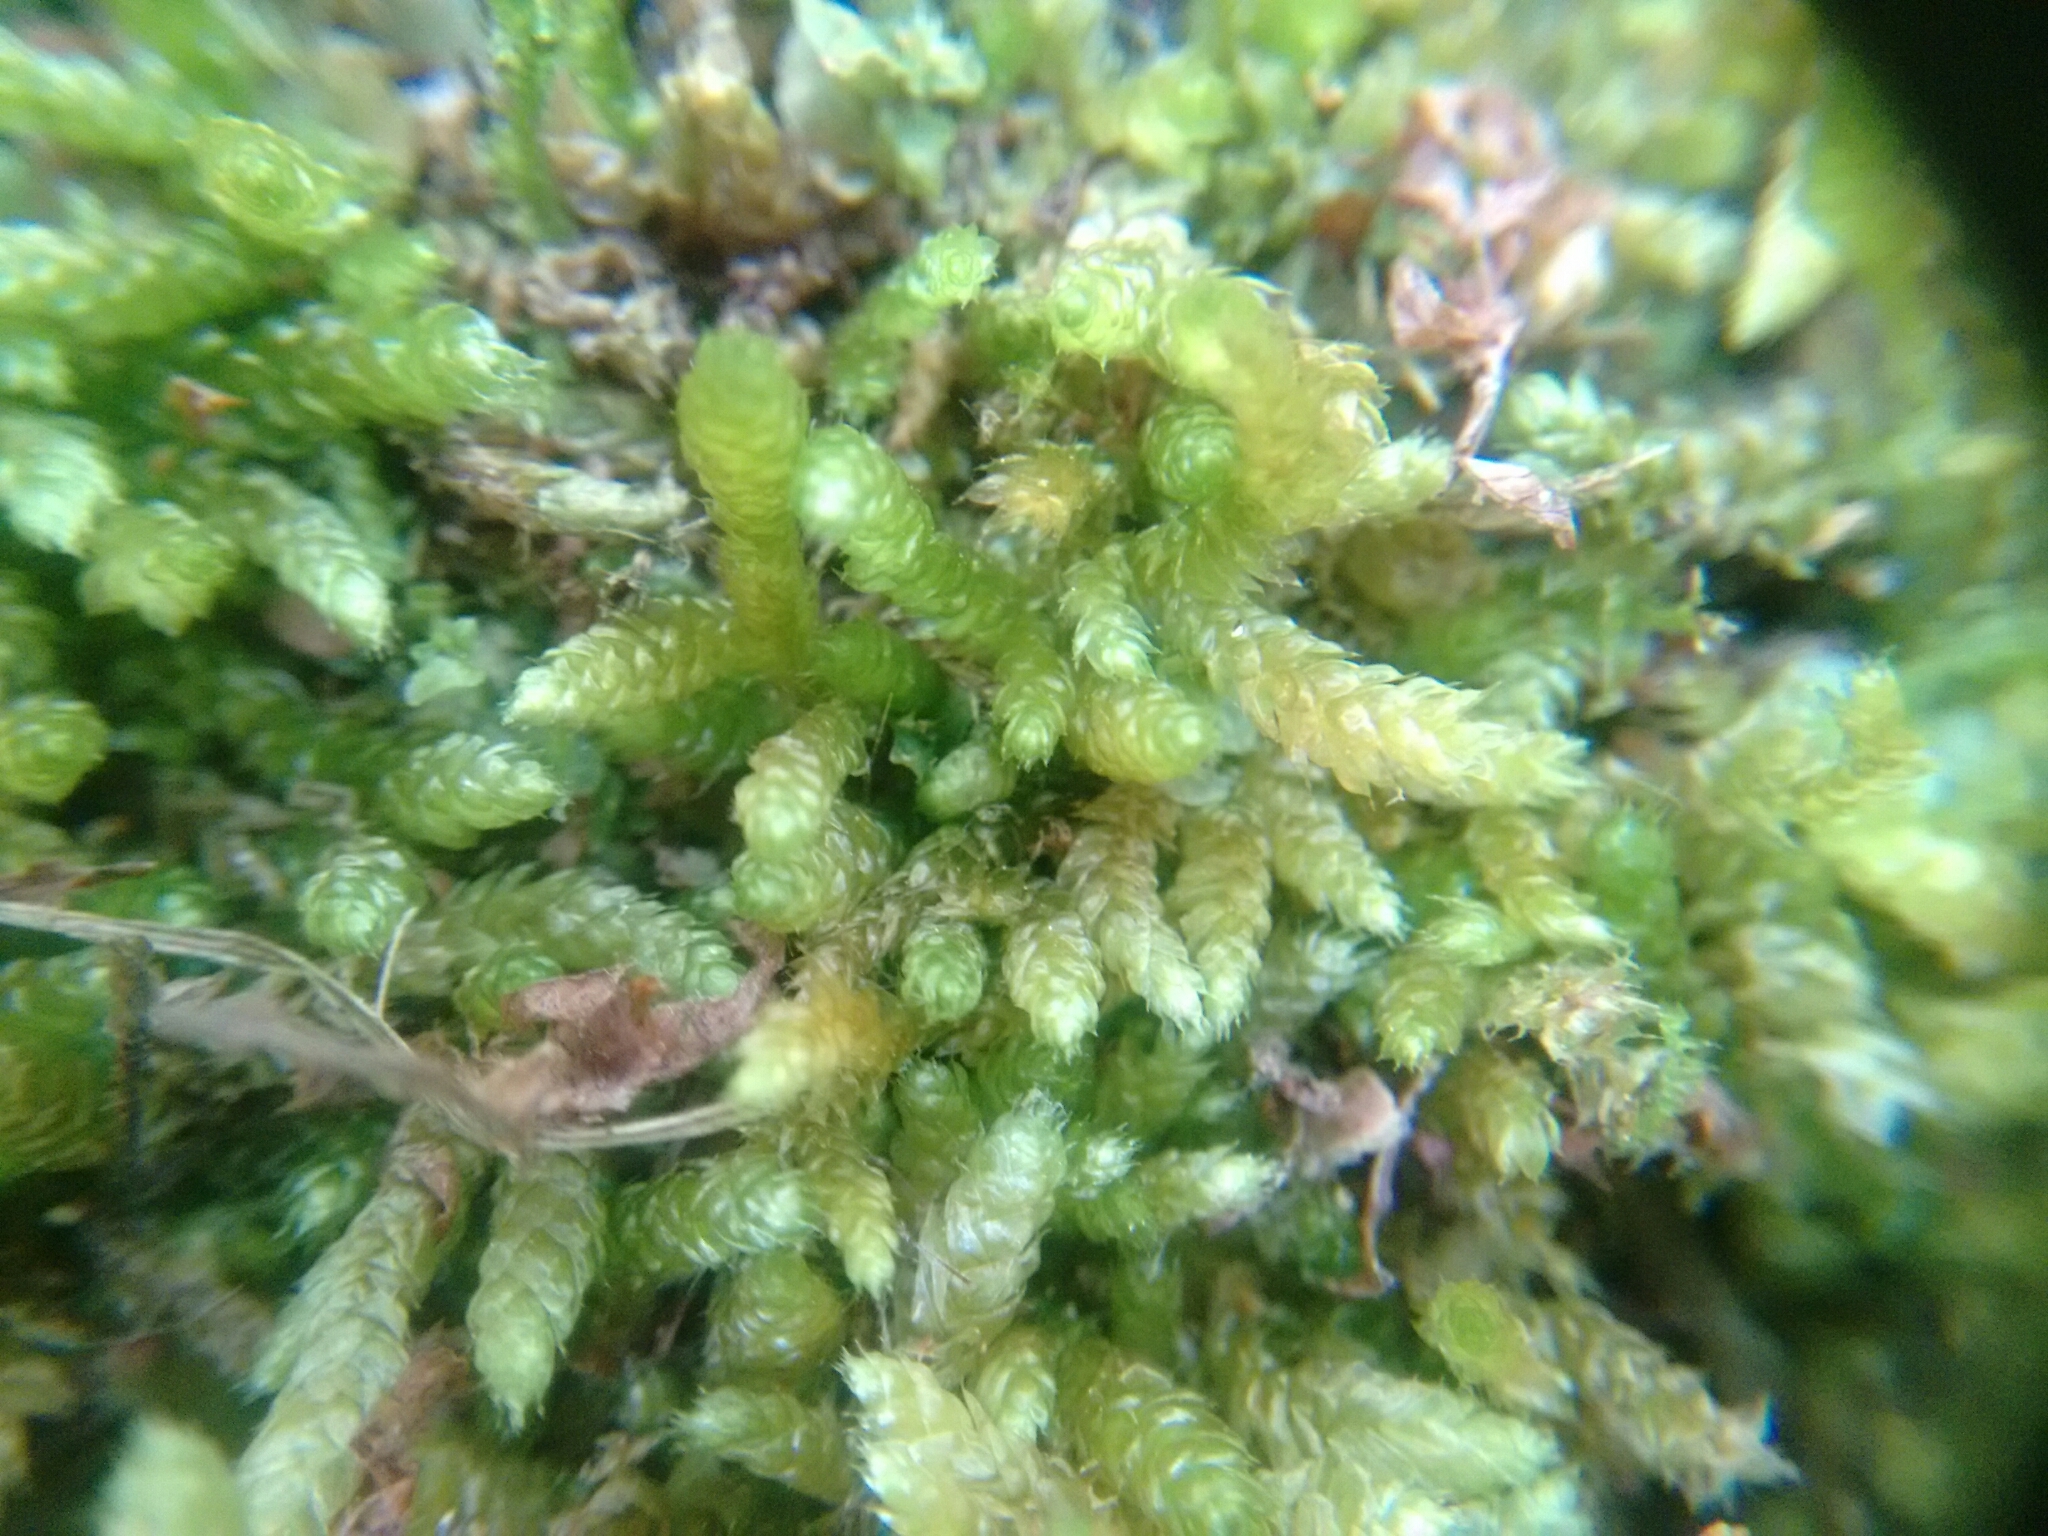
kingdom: Plantae
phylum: Bryophyta
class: Bryopsida
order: Hypnales
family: Brachytheciaceae
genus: Bryoandersonia
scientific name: Bryoandersonia illecebra
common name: Spoon-leaved moss
